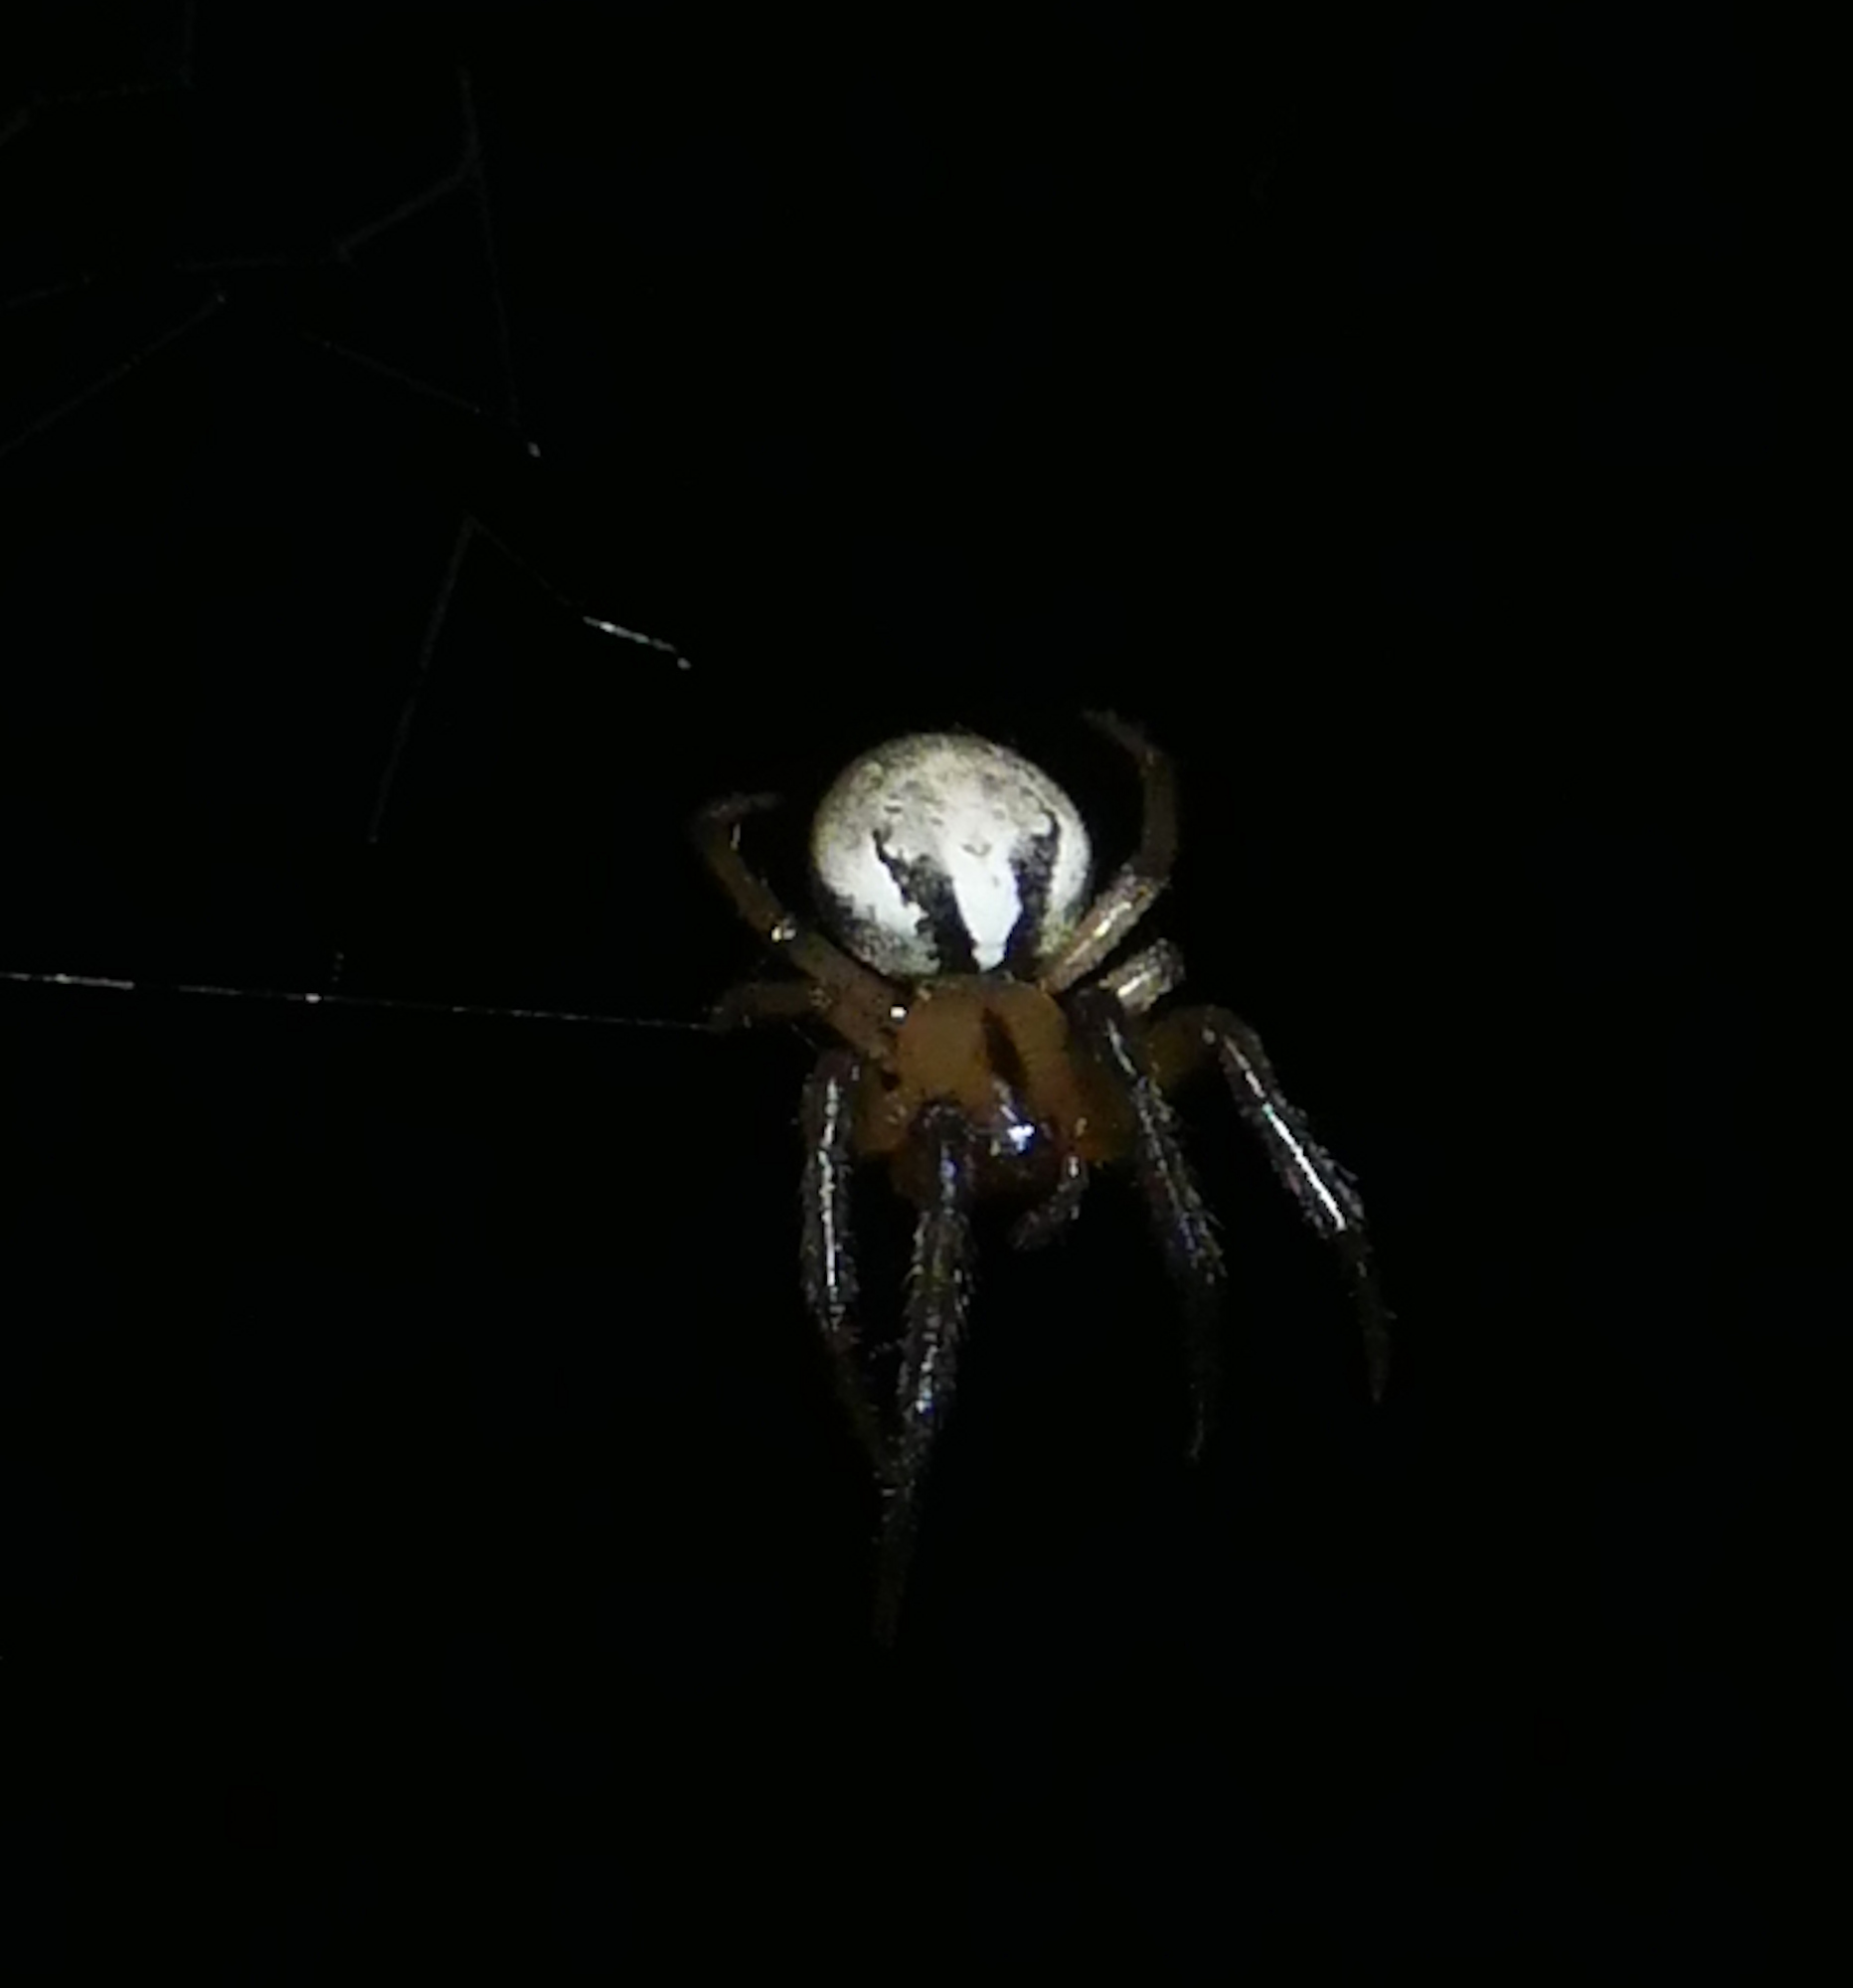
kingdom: Animalia
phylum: Arthropoda
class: Arachnida
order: Araneae
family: Araneidae
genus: Metazygia
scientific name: Metazygia zilloides
